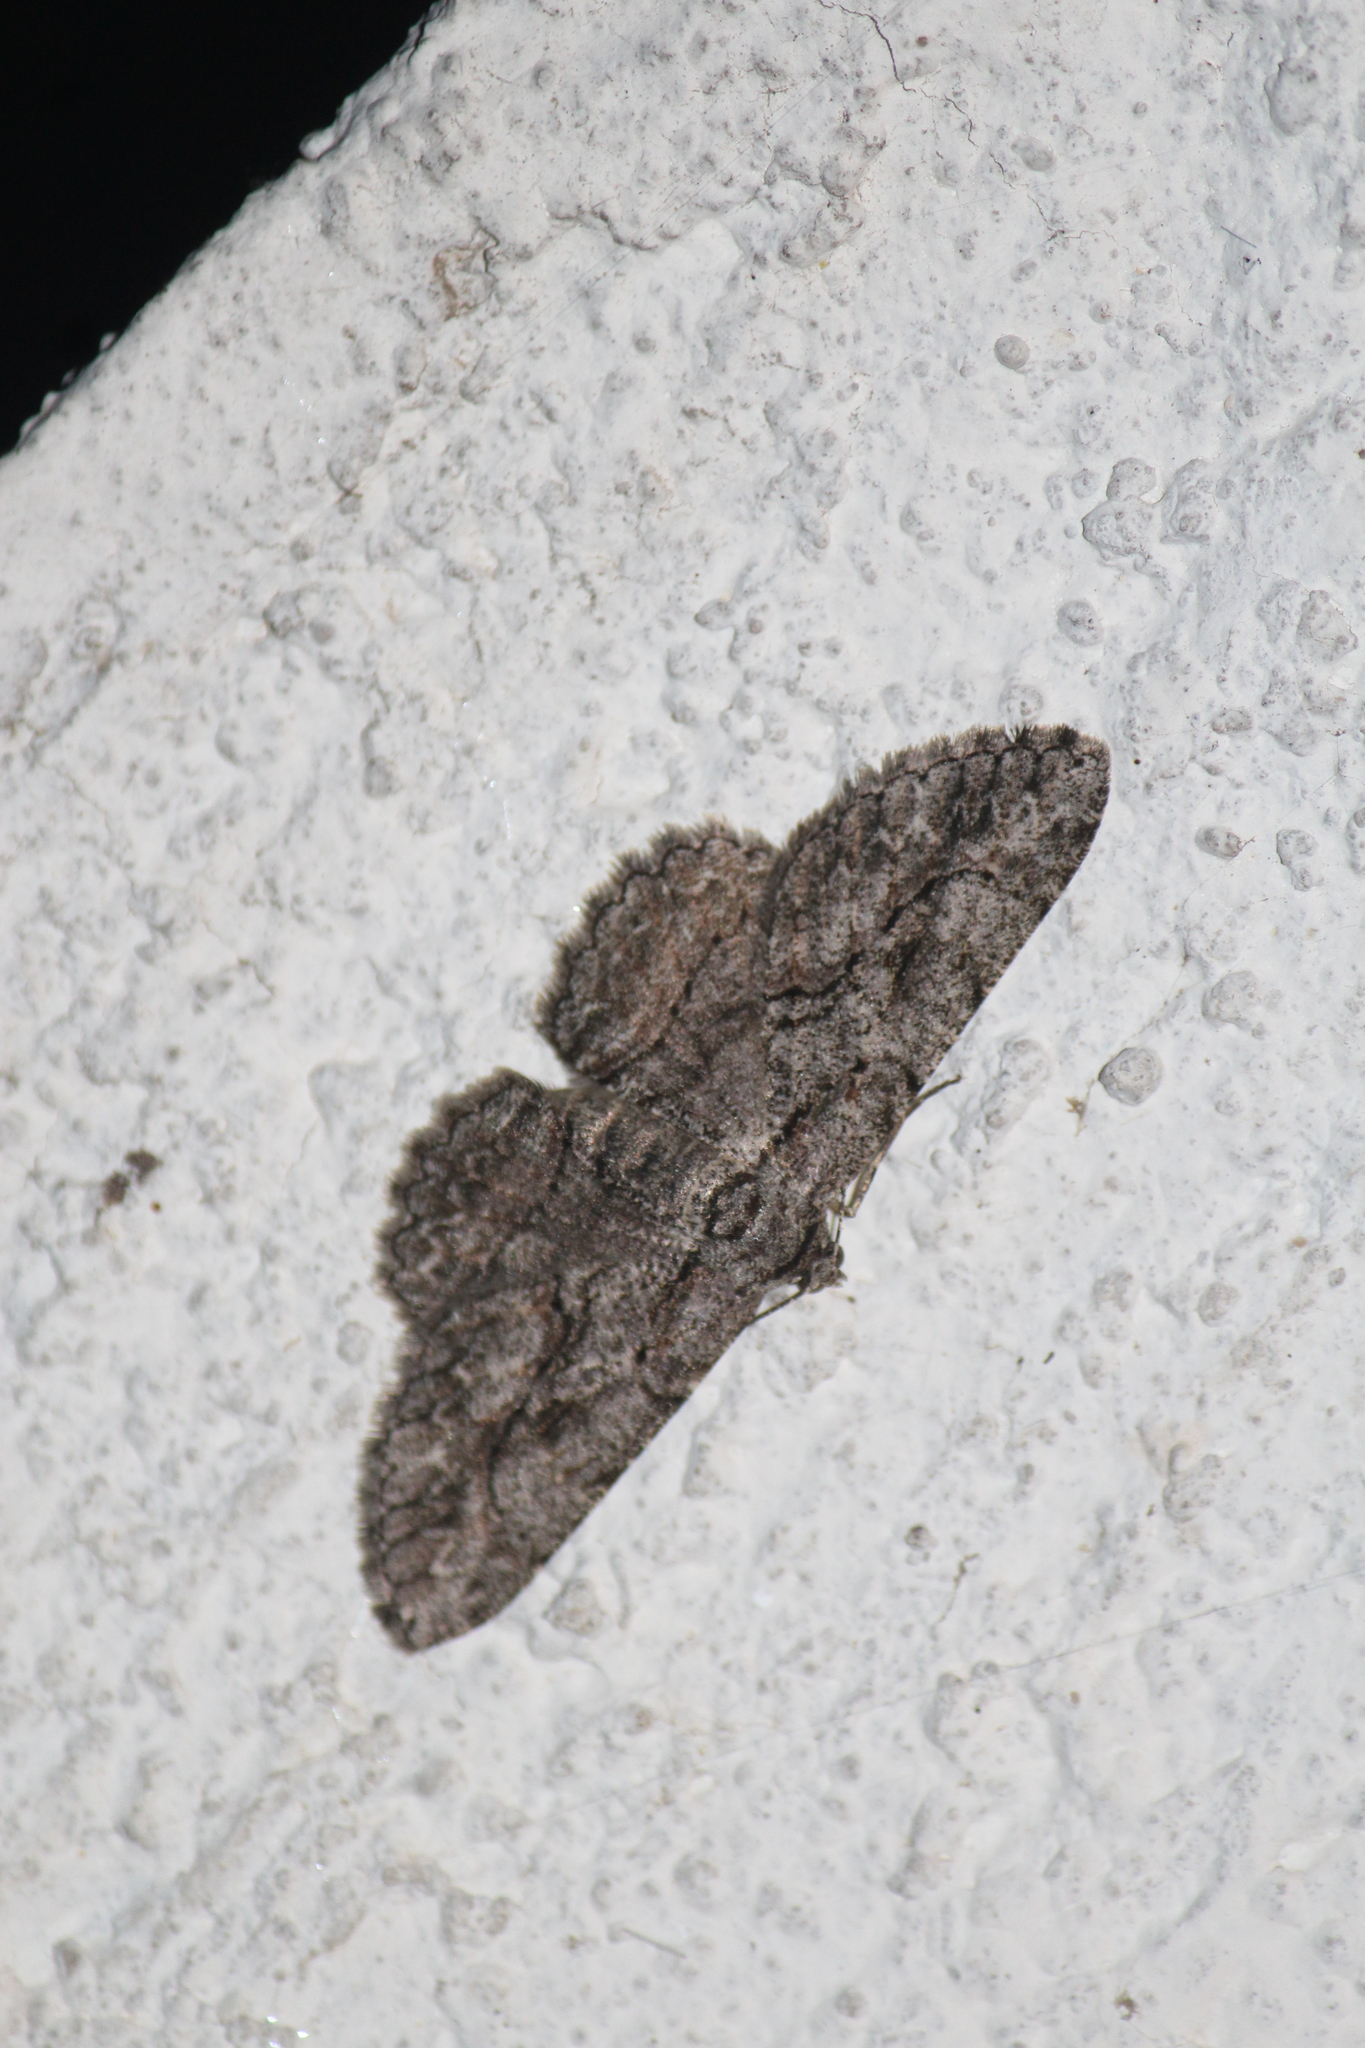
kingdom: Animalia
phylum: Arthropoda
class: Insecta
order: Lepidoptera
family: Geometridae
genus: Anavitrinella
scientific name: Anavitrinella pampinaria
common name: Common gray
